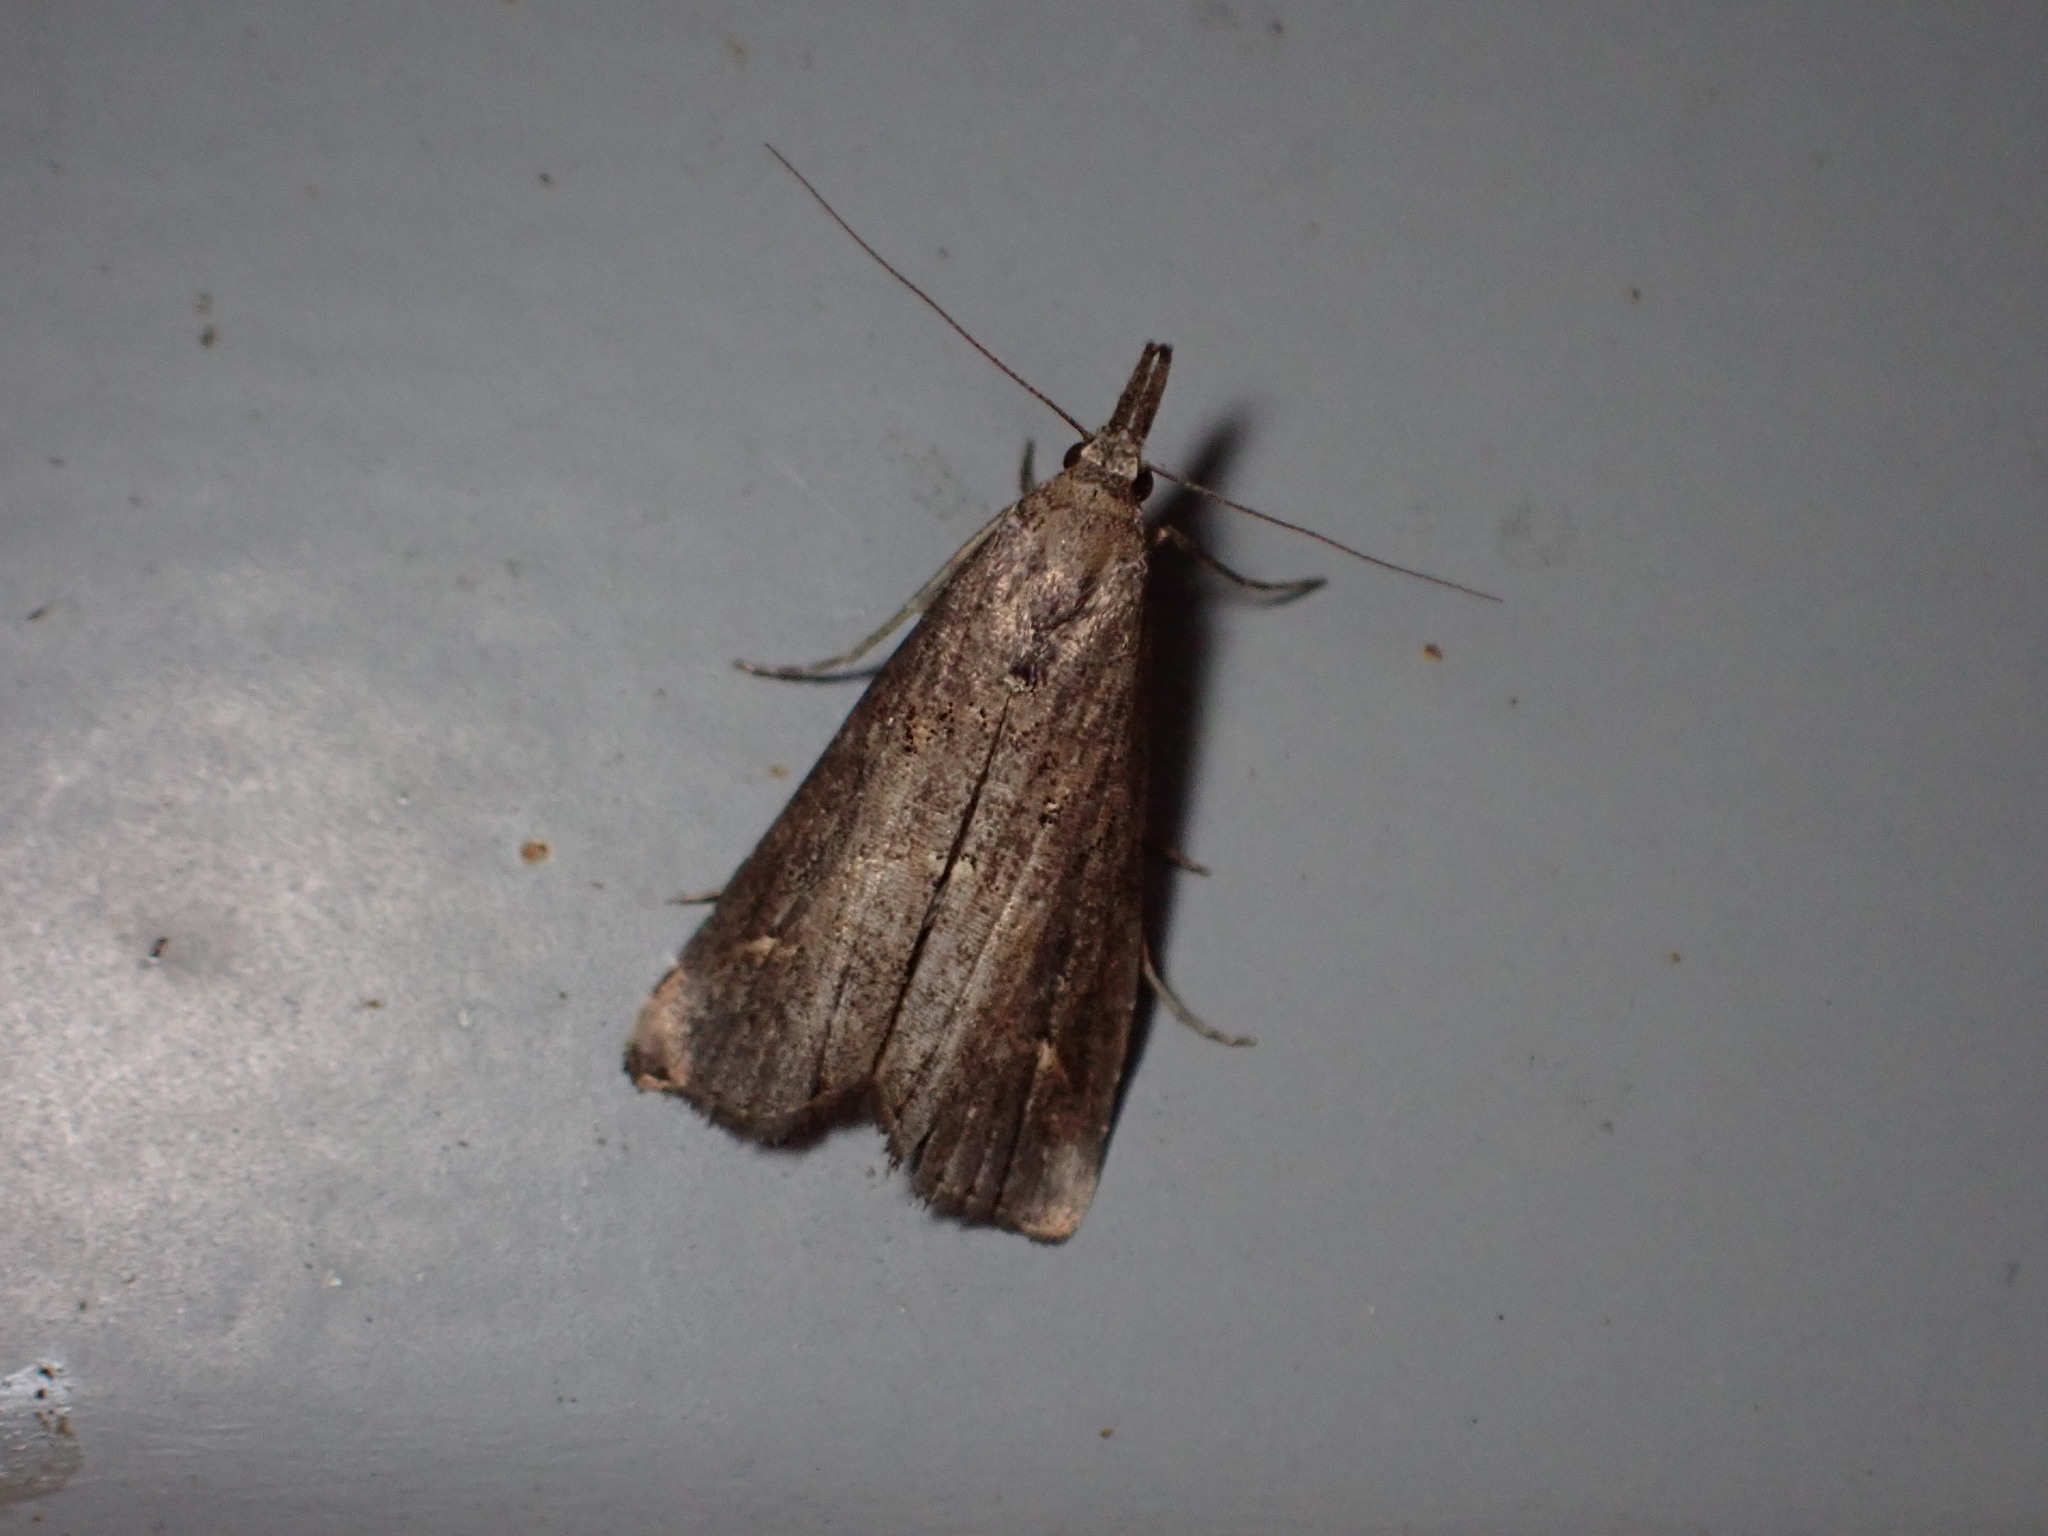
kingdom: Animalia
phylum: Arthropoda
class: Insecta
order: Lepidoptera
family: Erebidae
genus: Schrankia
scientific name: Schrankia costaestrigalis
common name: Pinion-streaked snout
